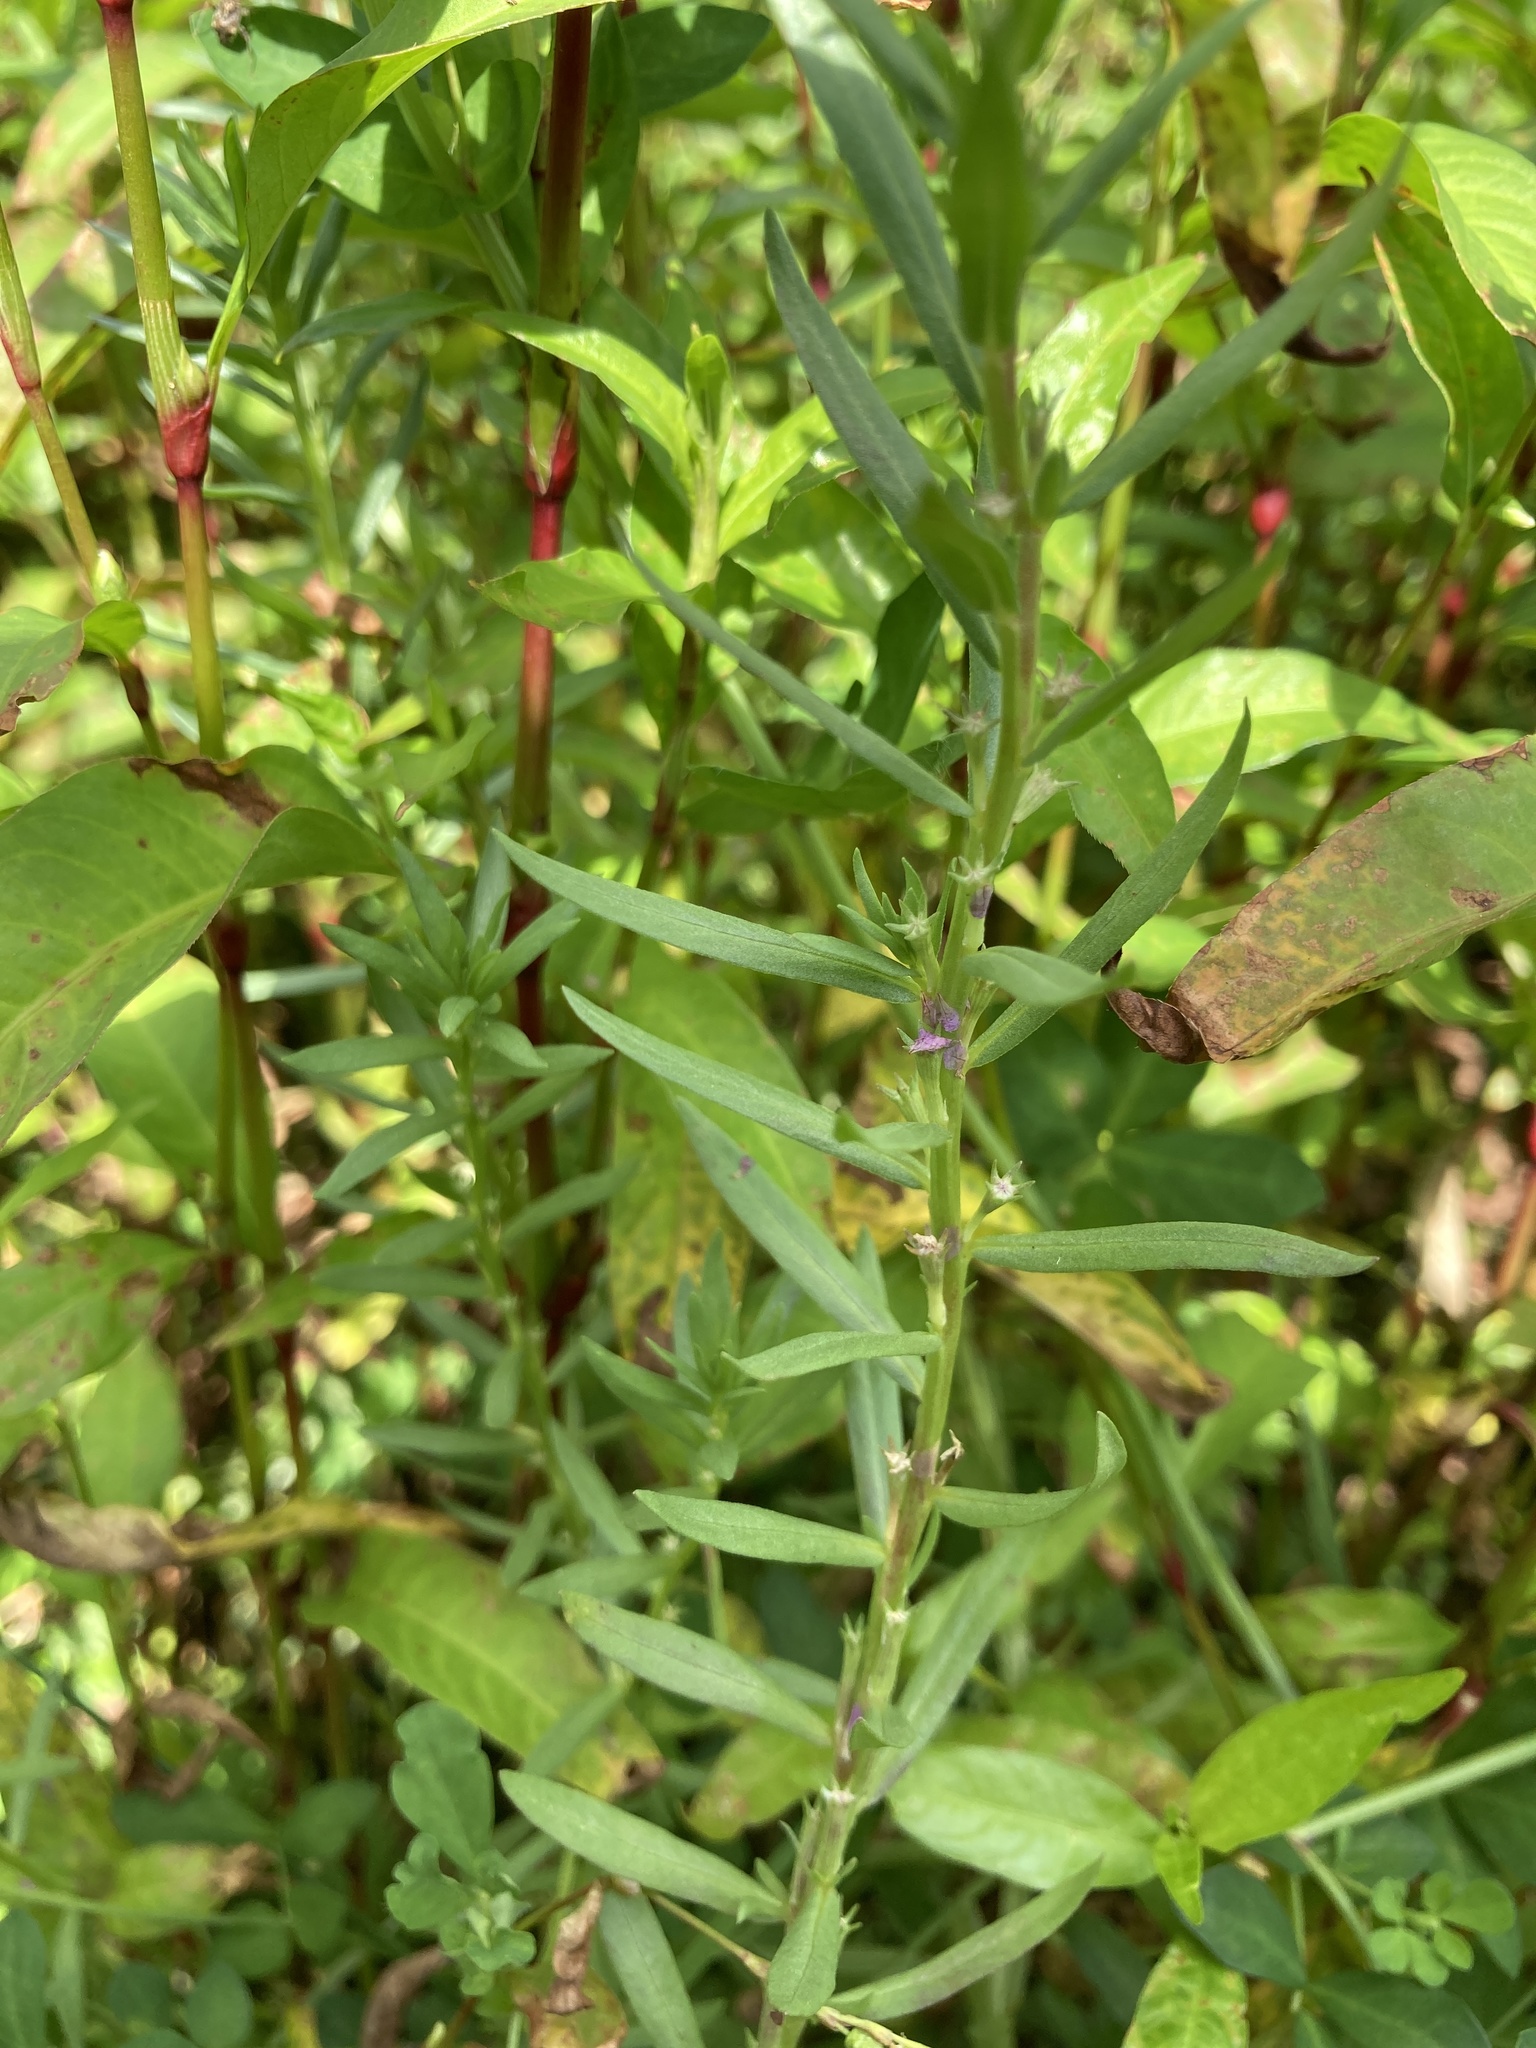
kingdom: Plantae
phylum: Tracheophyta
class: Magnoliopsida
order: Myrtales
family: Lythraceae
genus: Lythrum
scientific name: Lythrum hyssopifolia
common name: Grass-poly
